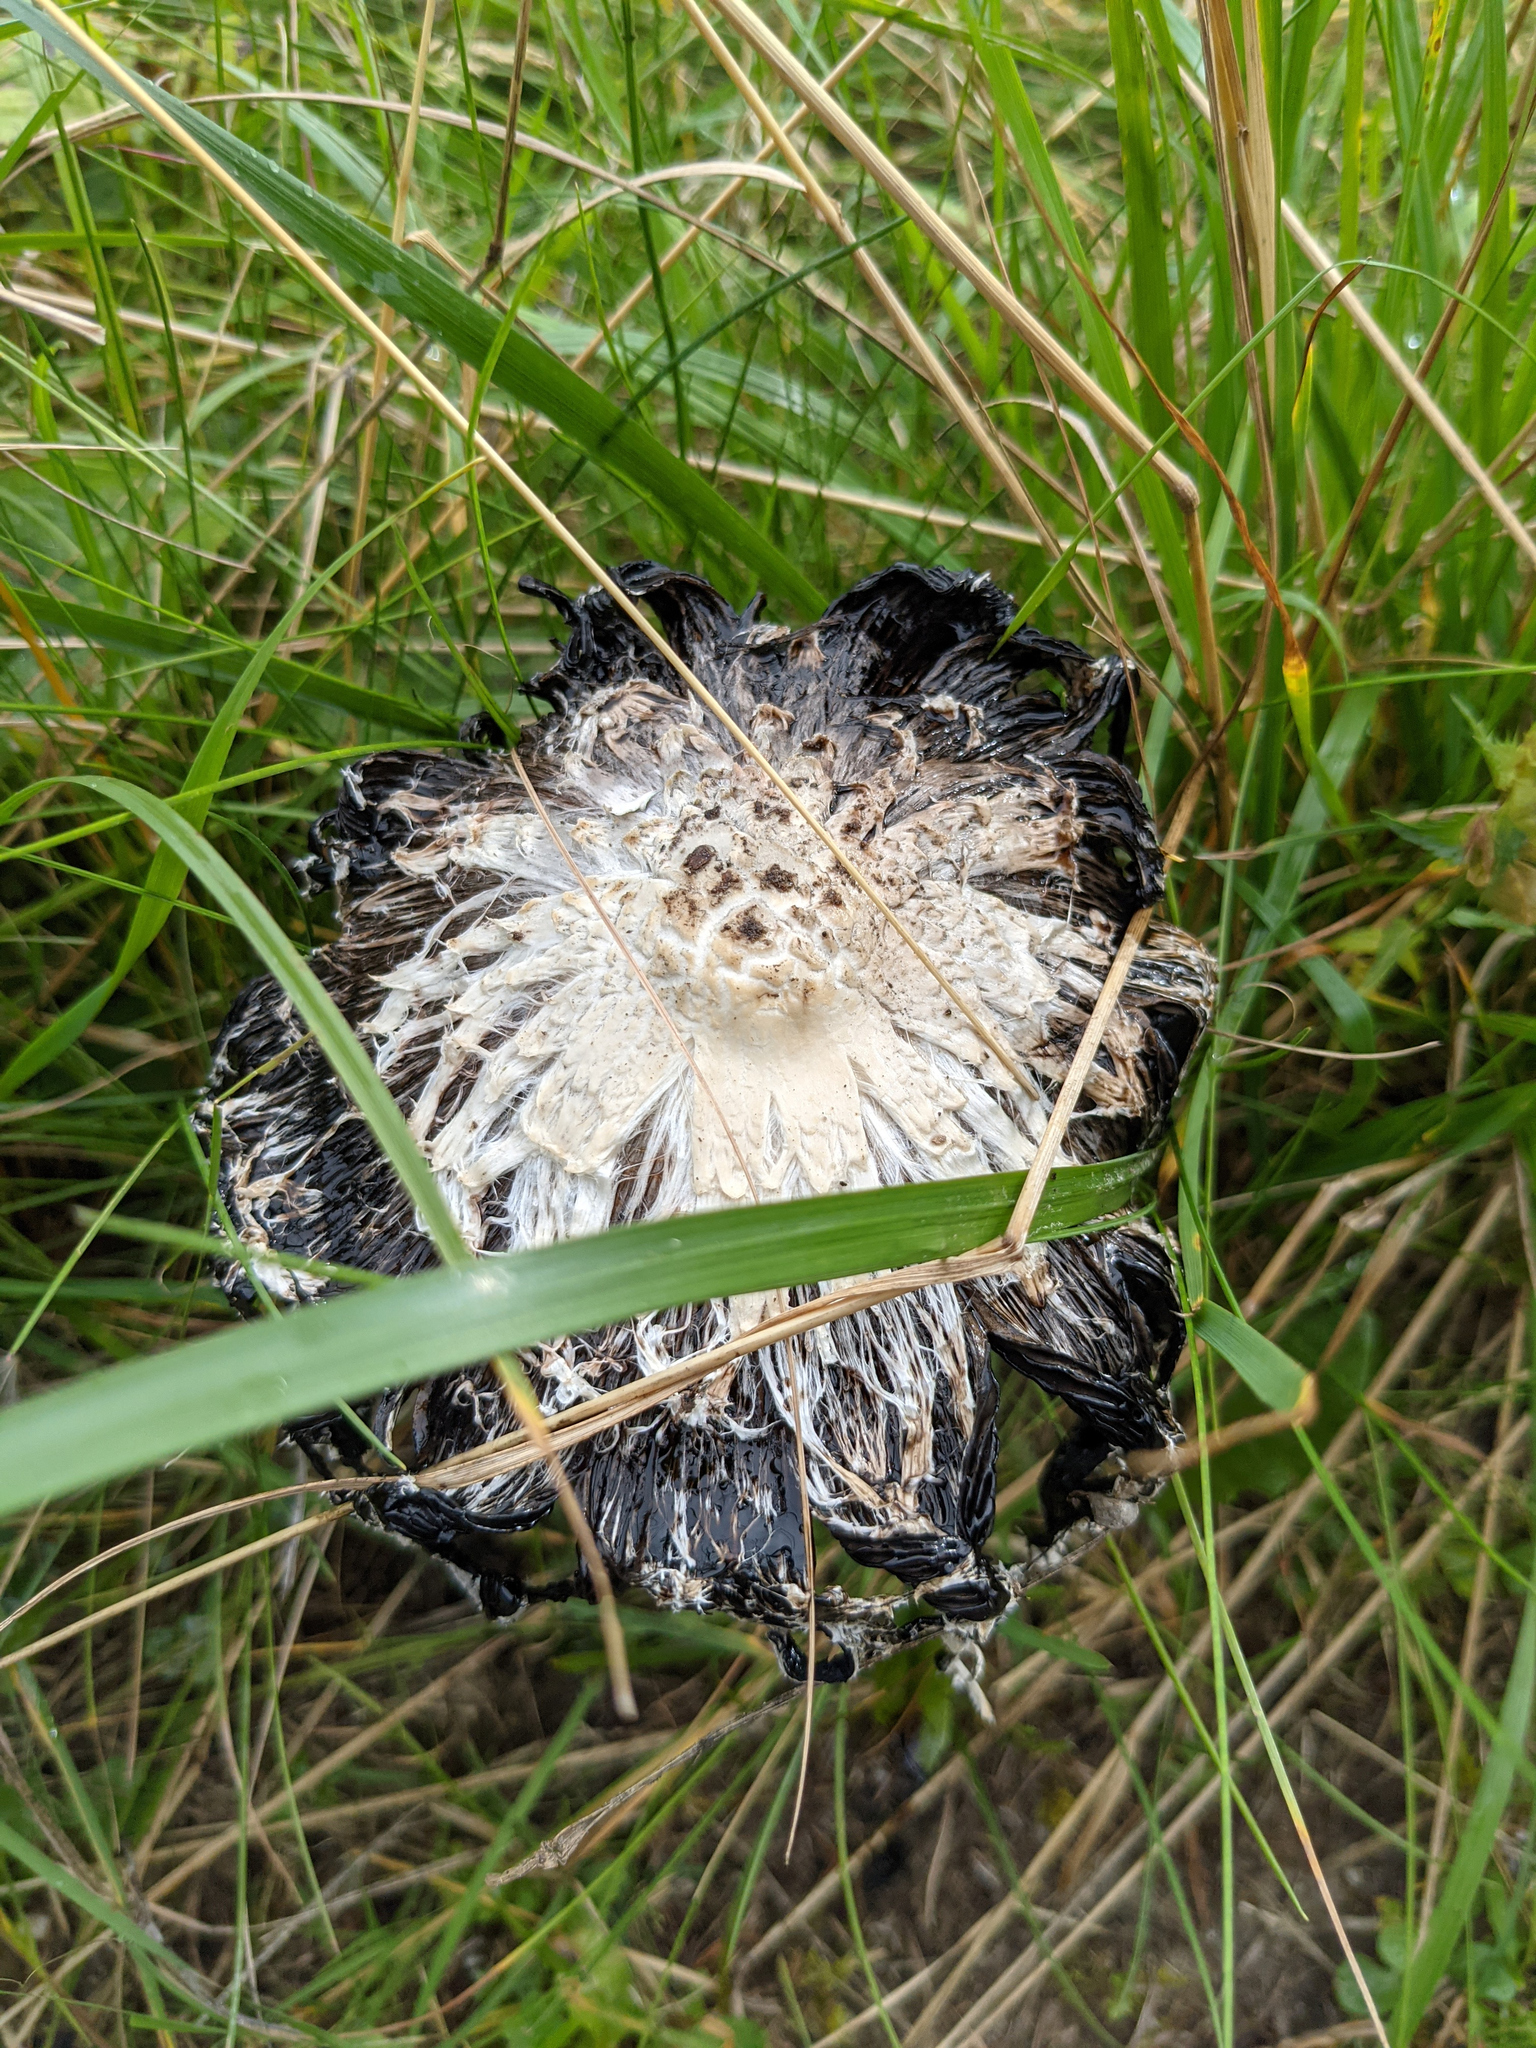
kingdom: Fungi
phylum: Basidiomycota
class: Agaricomycetes
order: Agaricales
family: Agaricaceae
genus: Coprinus
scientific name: Coprinus comatus
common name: Lawyer's wig
